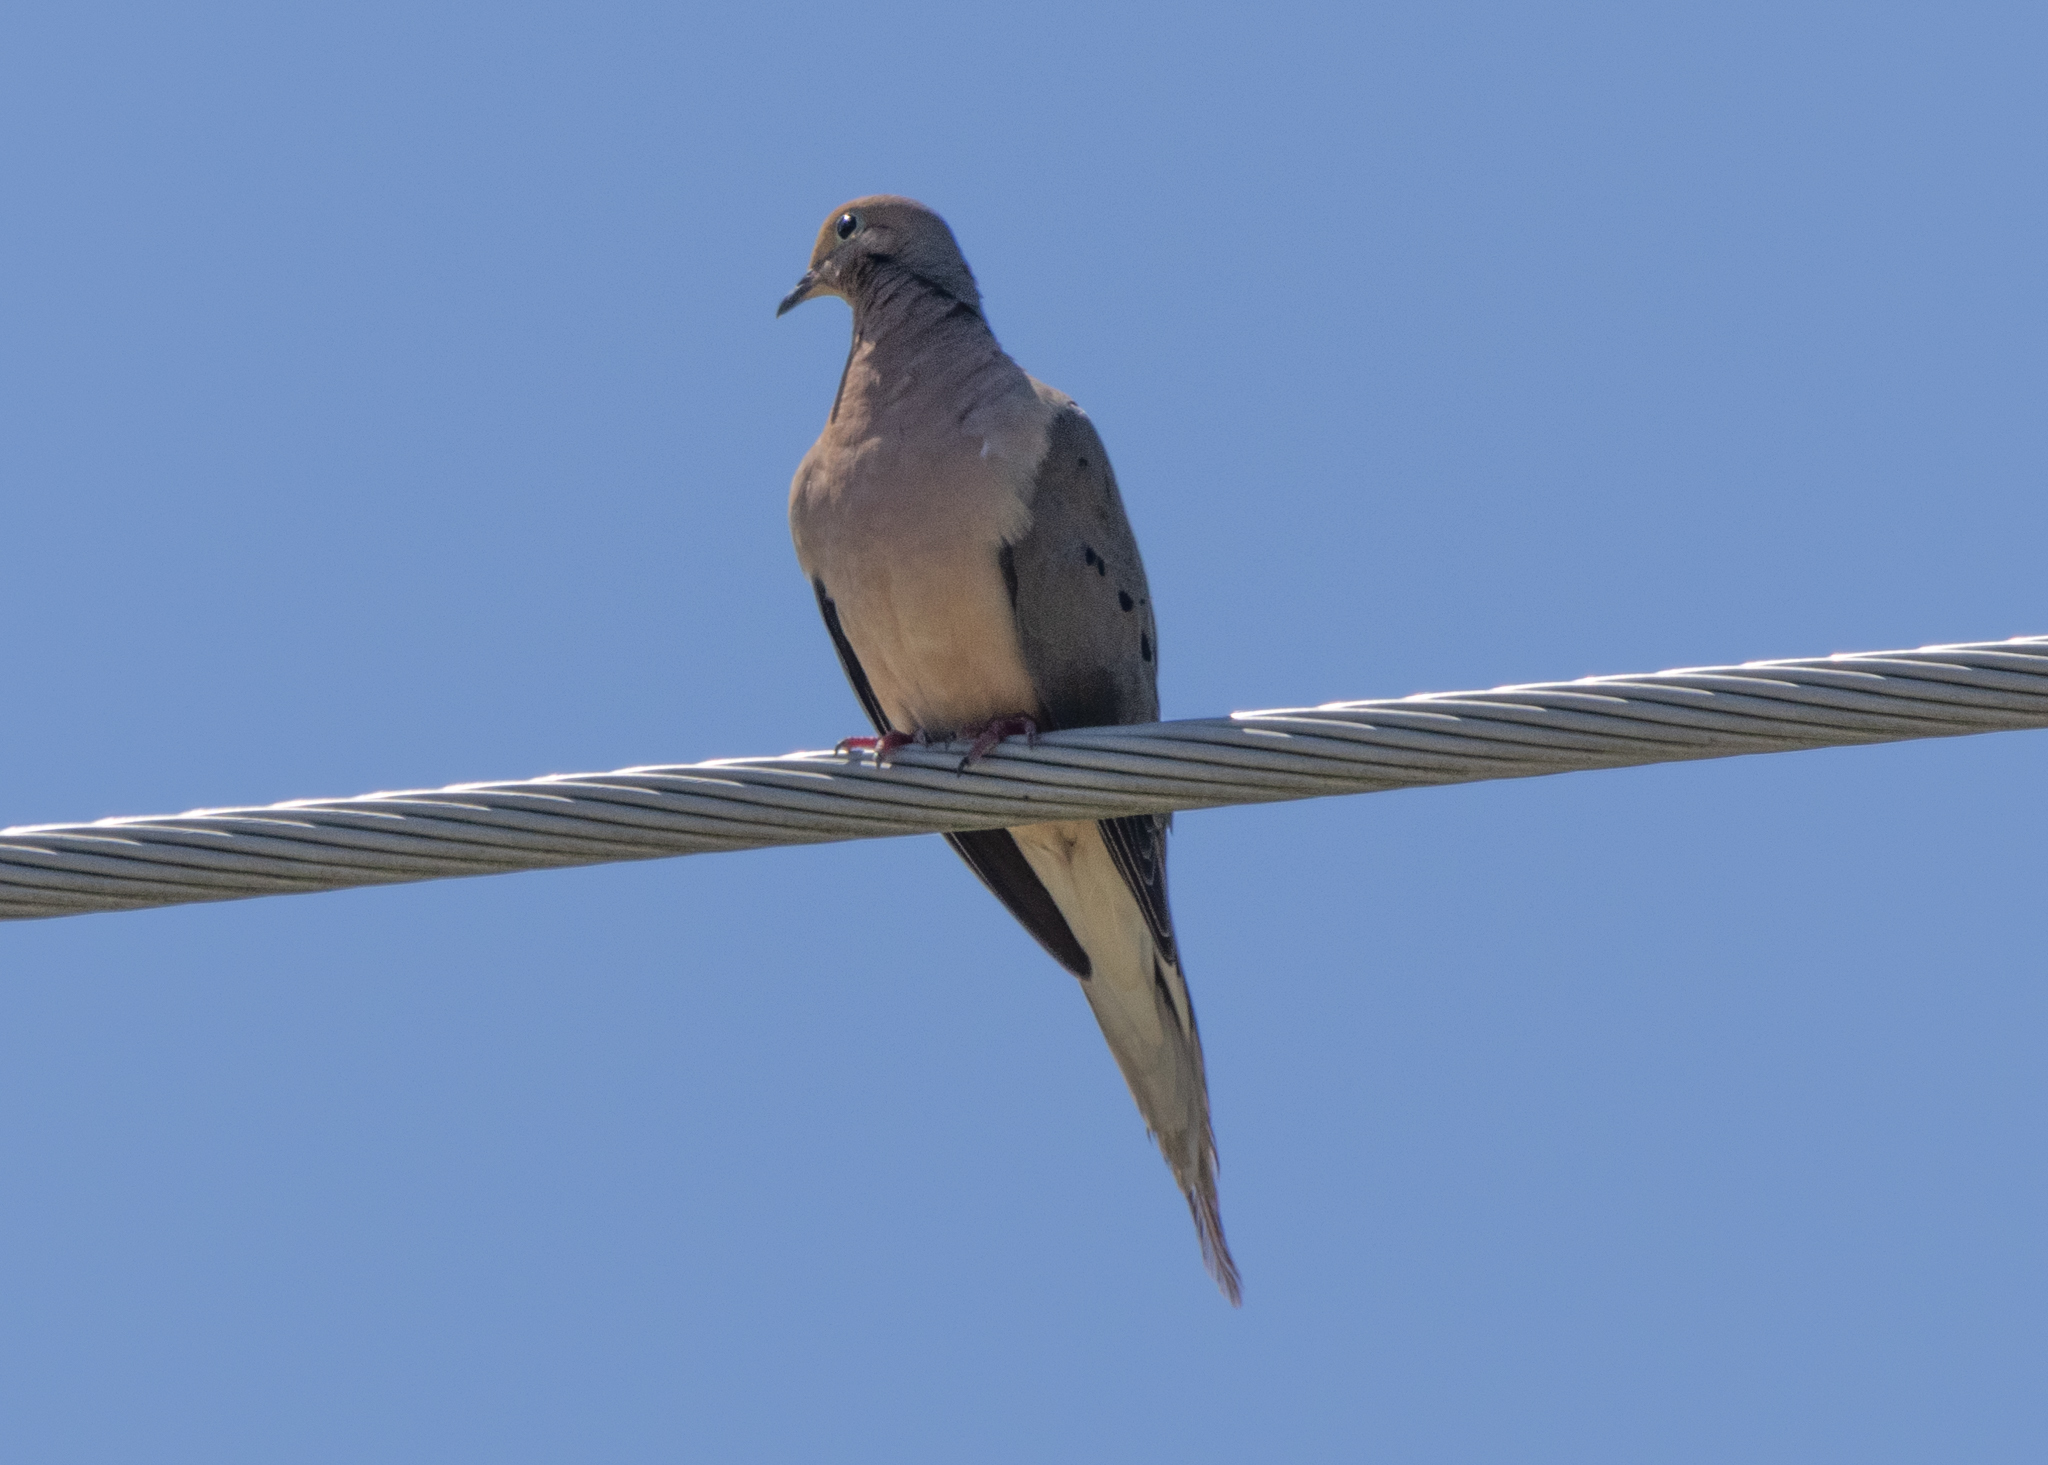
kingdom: Animalia
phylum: Chordata
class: Aves
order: Columbiformes
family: Columbidae
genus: Zenaida
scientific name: Zenaida macroura
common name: Mourning dove
